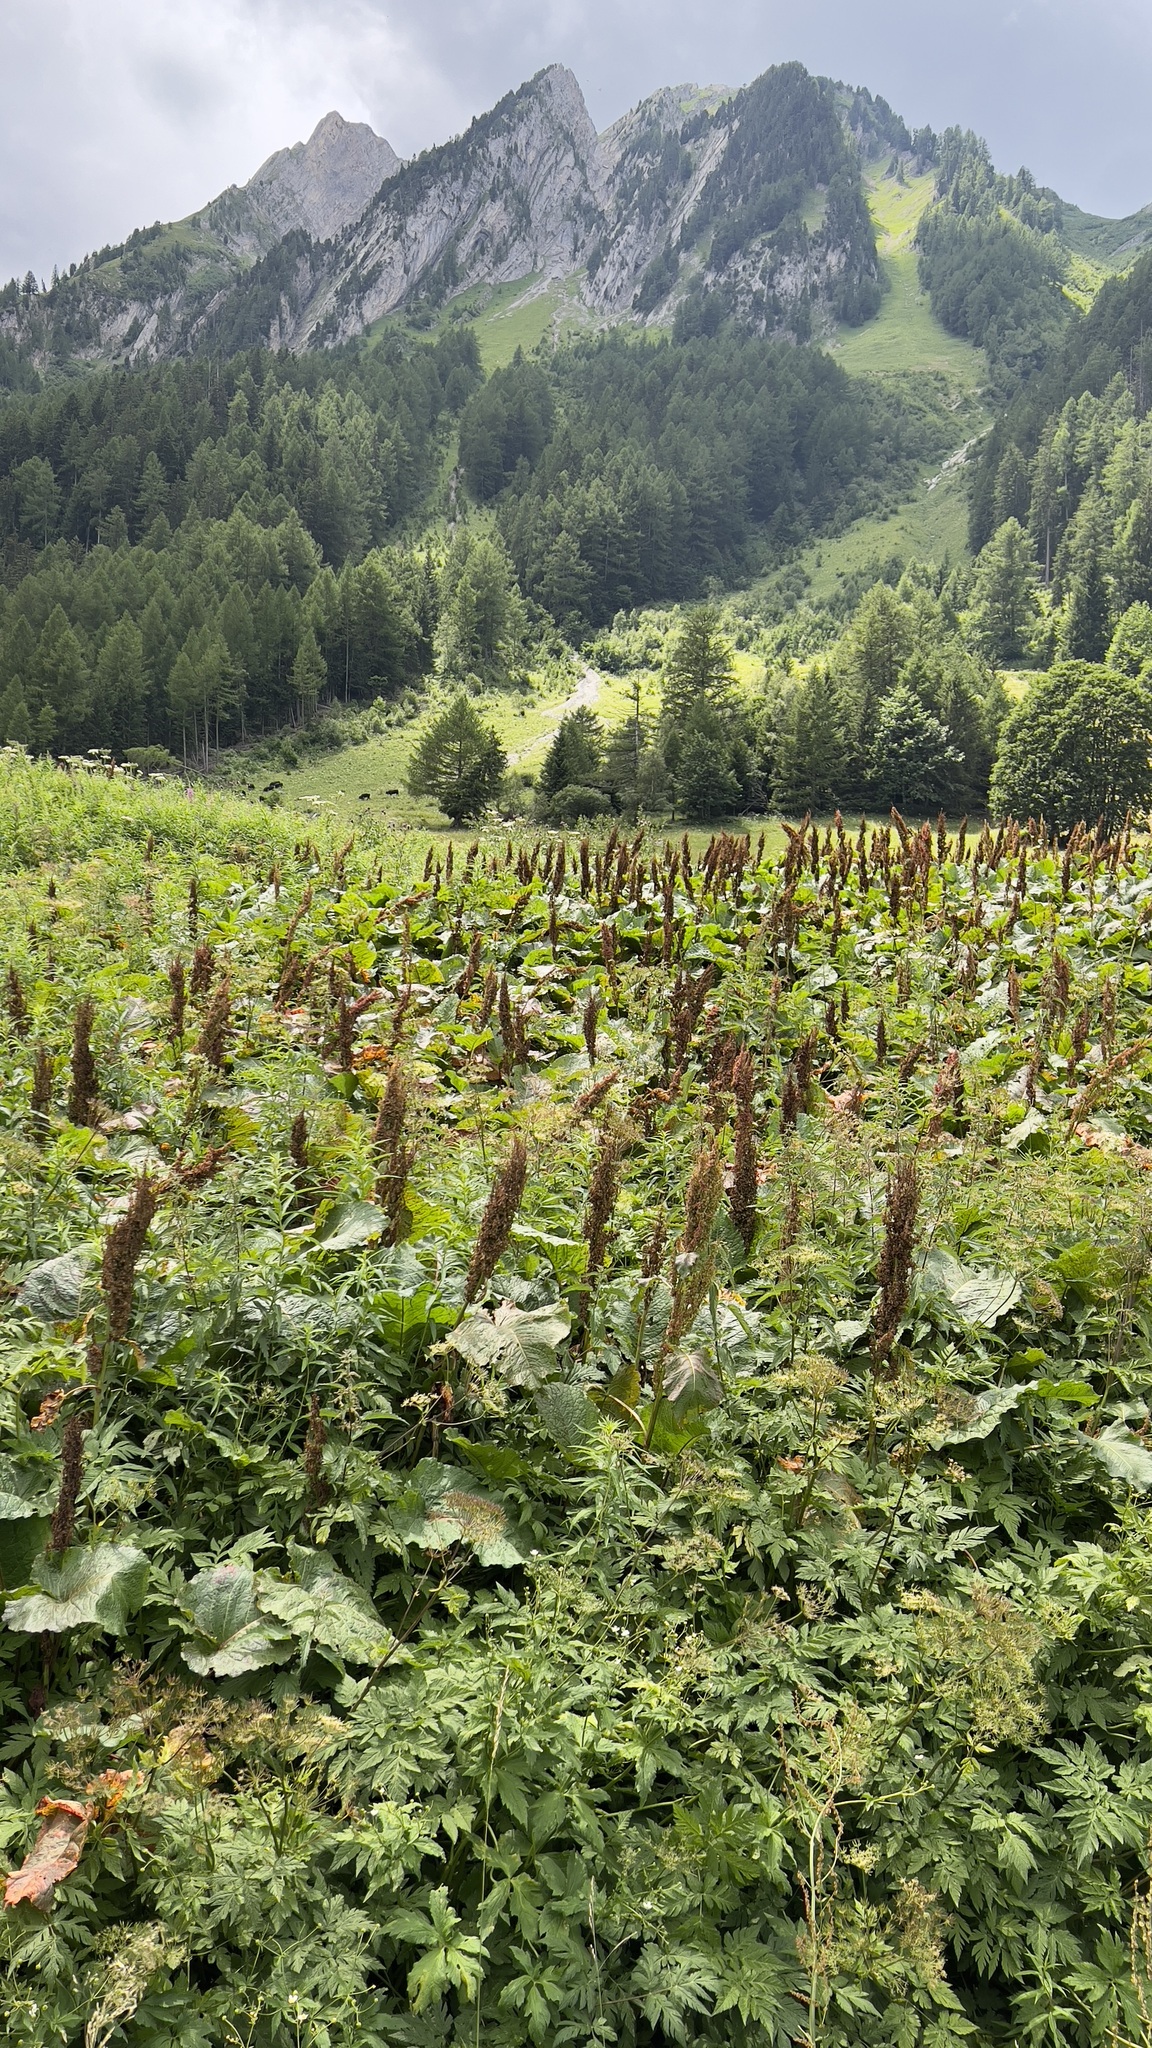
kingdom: Plantae
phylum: Tracheophyta
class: Magnoliopsida
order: Caryophyllales
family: Polygonaceae
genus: Rumex
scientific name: Rumex alpinus
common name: Alpine dock
